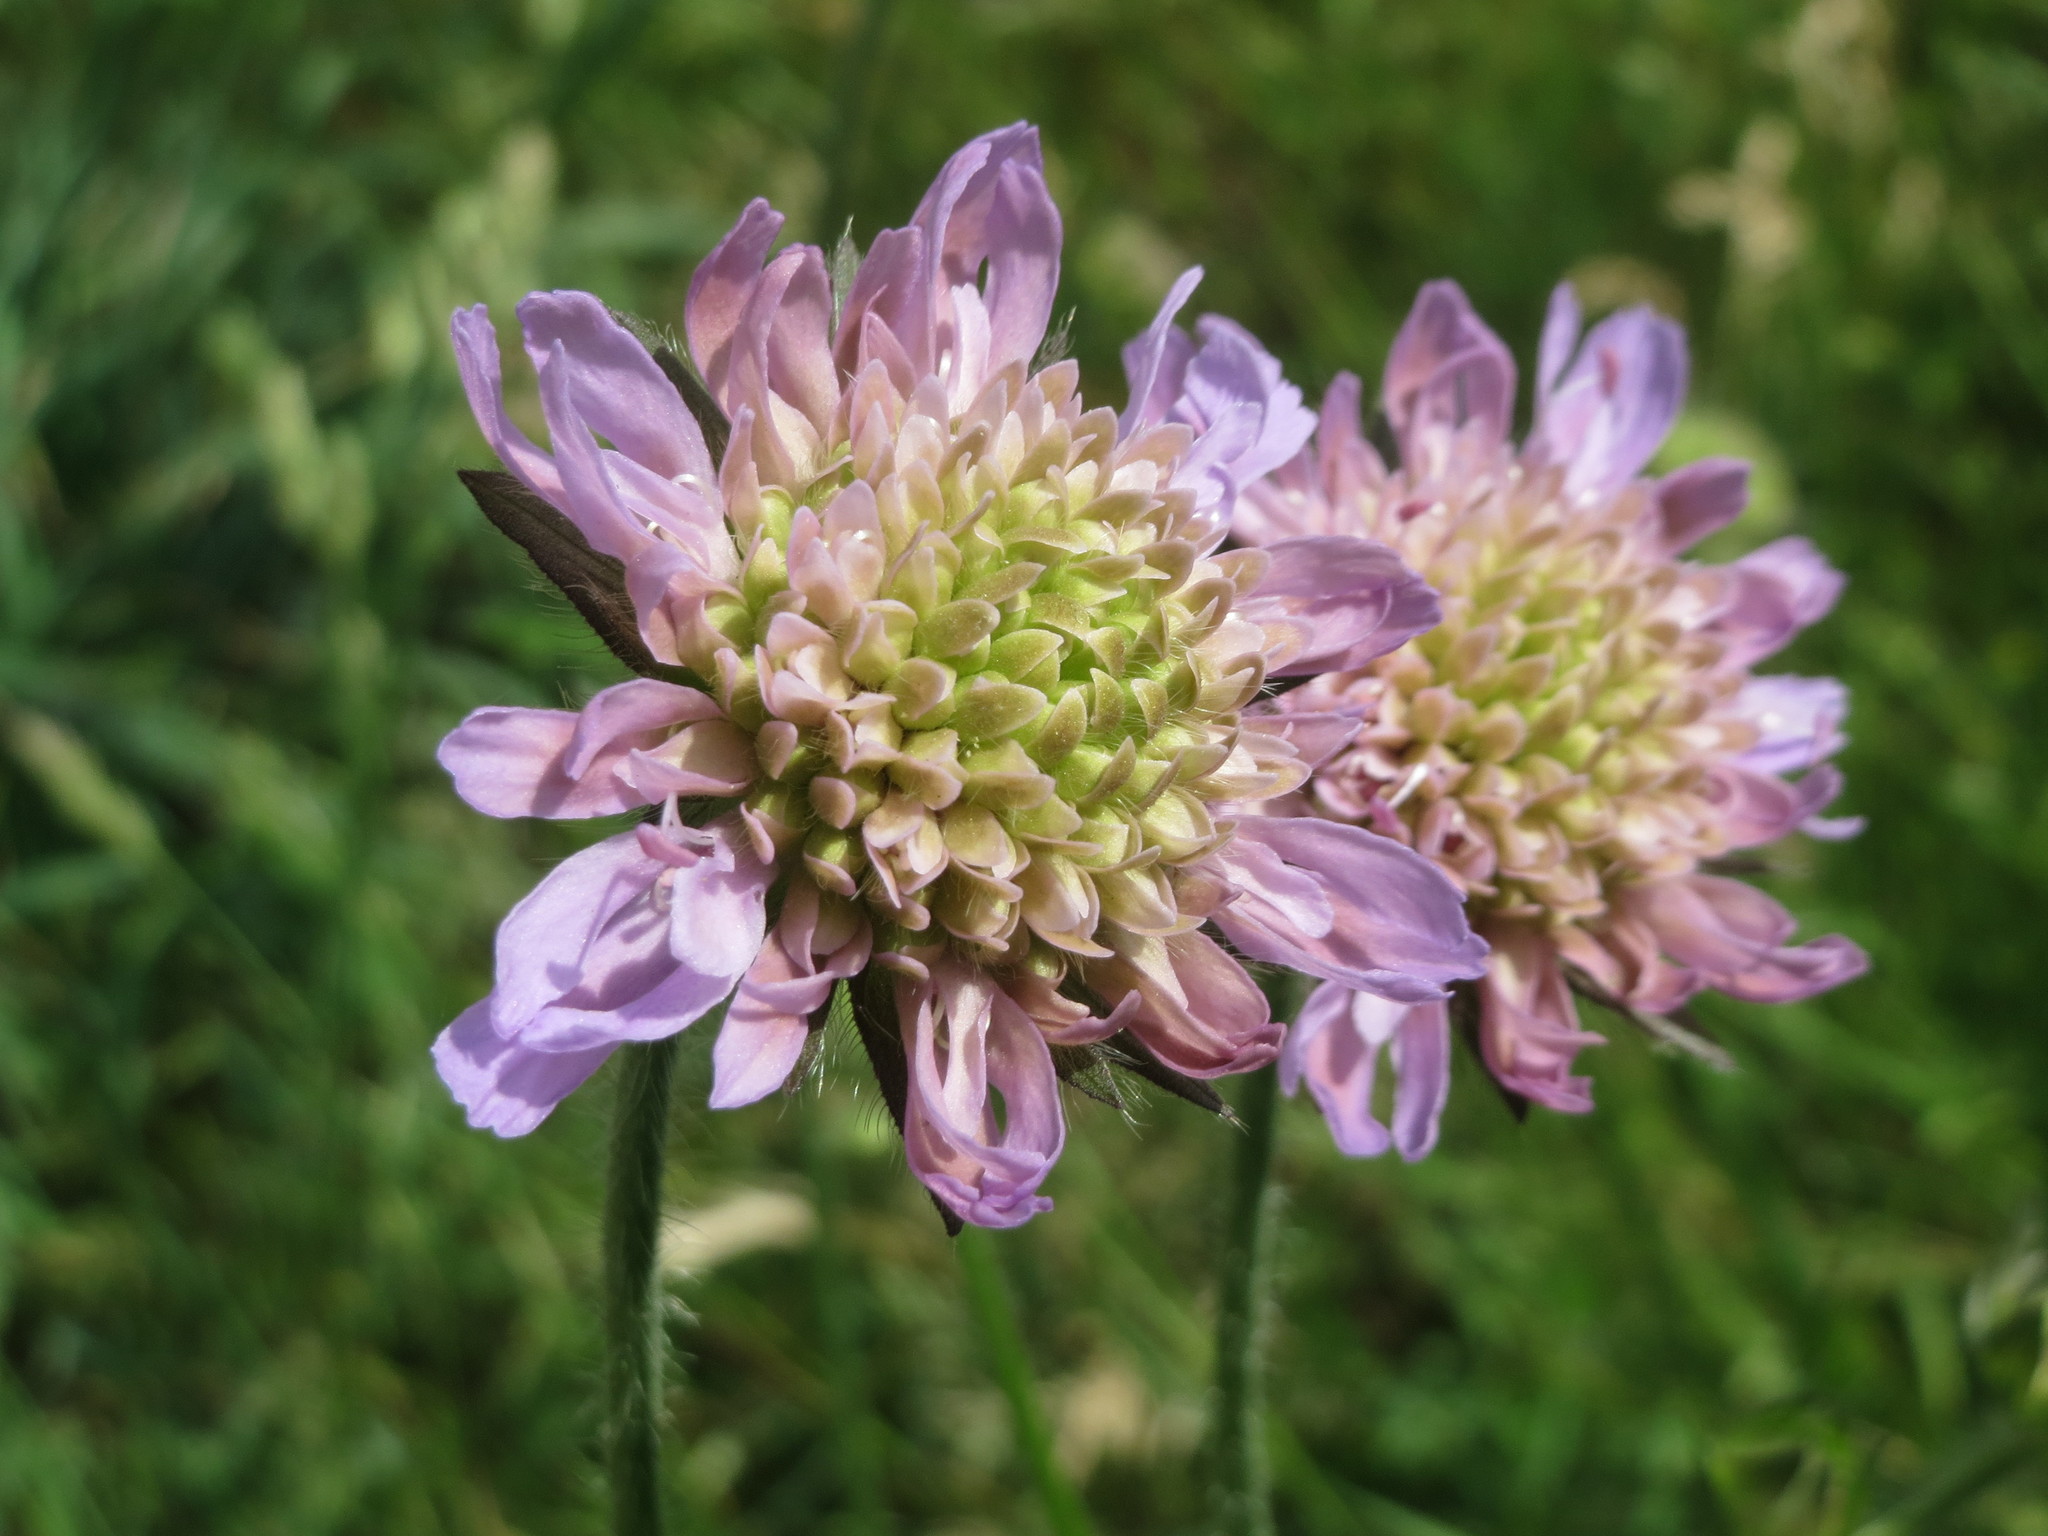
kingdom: Plantae
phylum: Tracheophyta
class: Magnoliopsida
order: Dipsacales
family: Caprifoliaceae
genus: Knautia
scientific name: Knautia arvensis
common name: Field scabiosa
